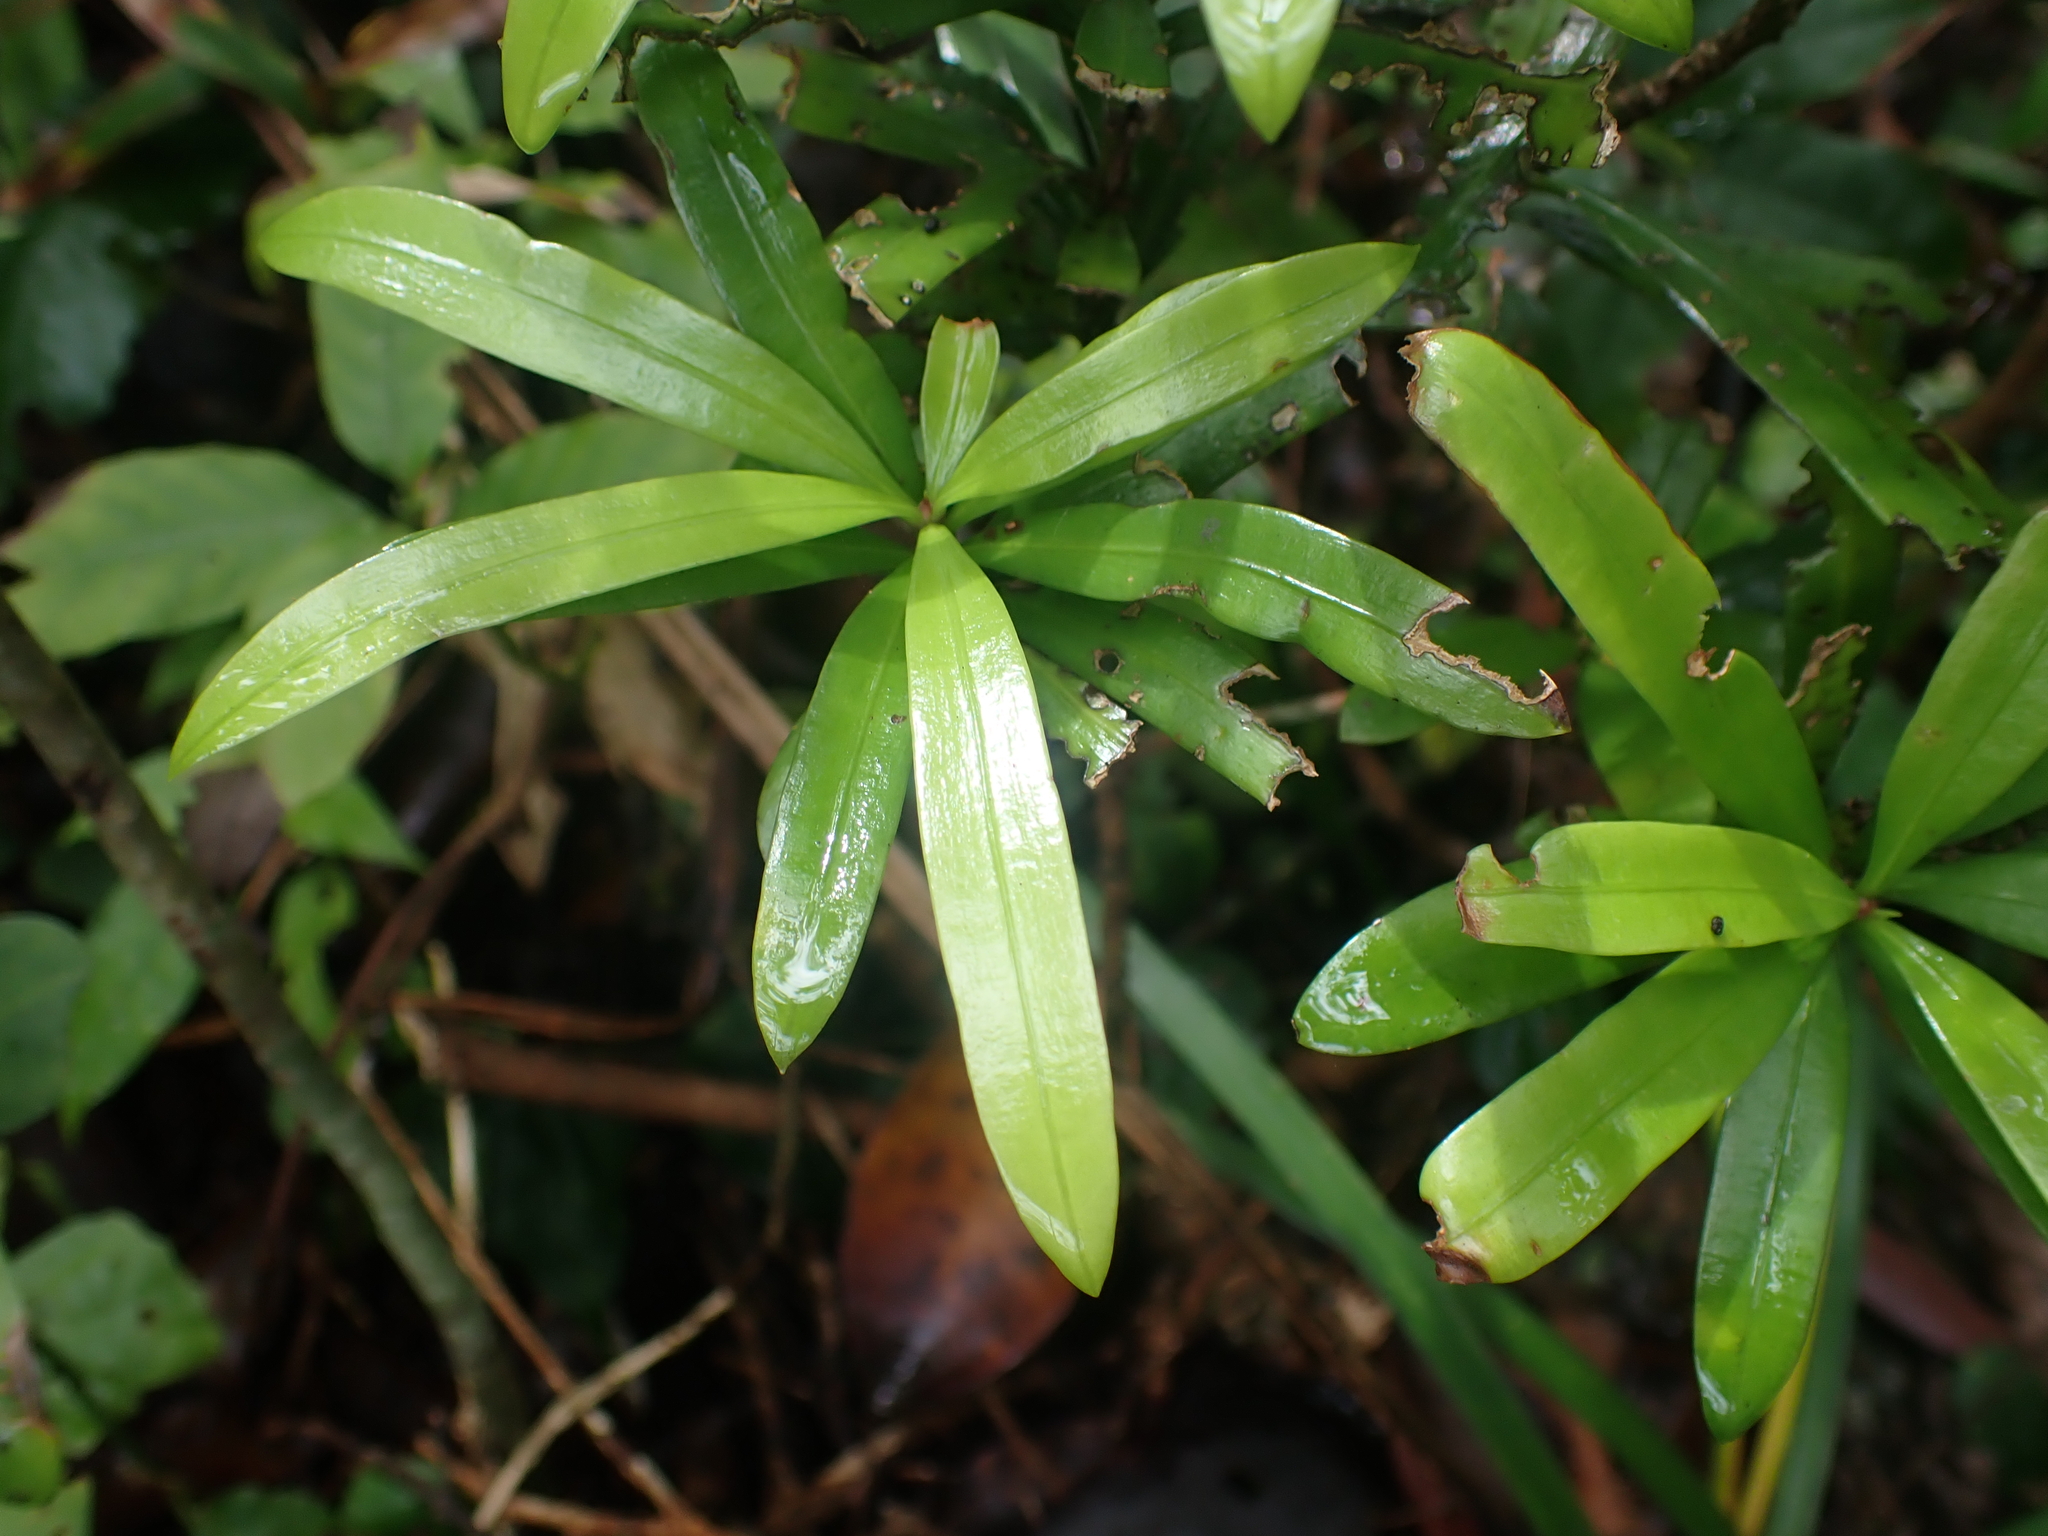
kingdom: Plantae
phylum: Tracheophyta
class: Pinopsida
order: Pinales
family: Podocarpaceae
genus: Podocarpus
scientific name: Podocarpus costalis
